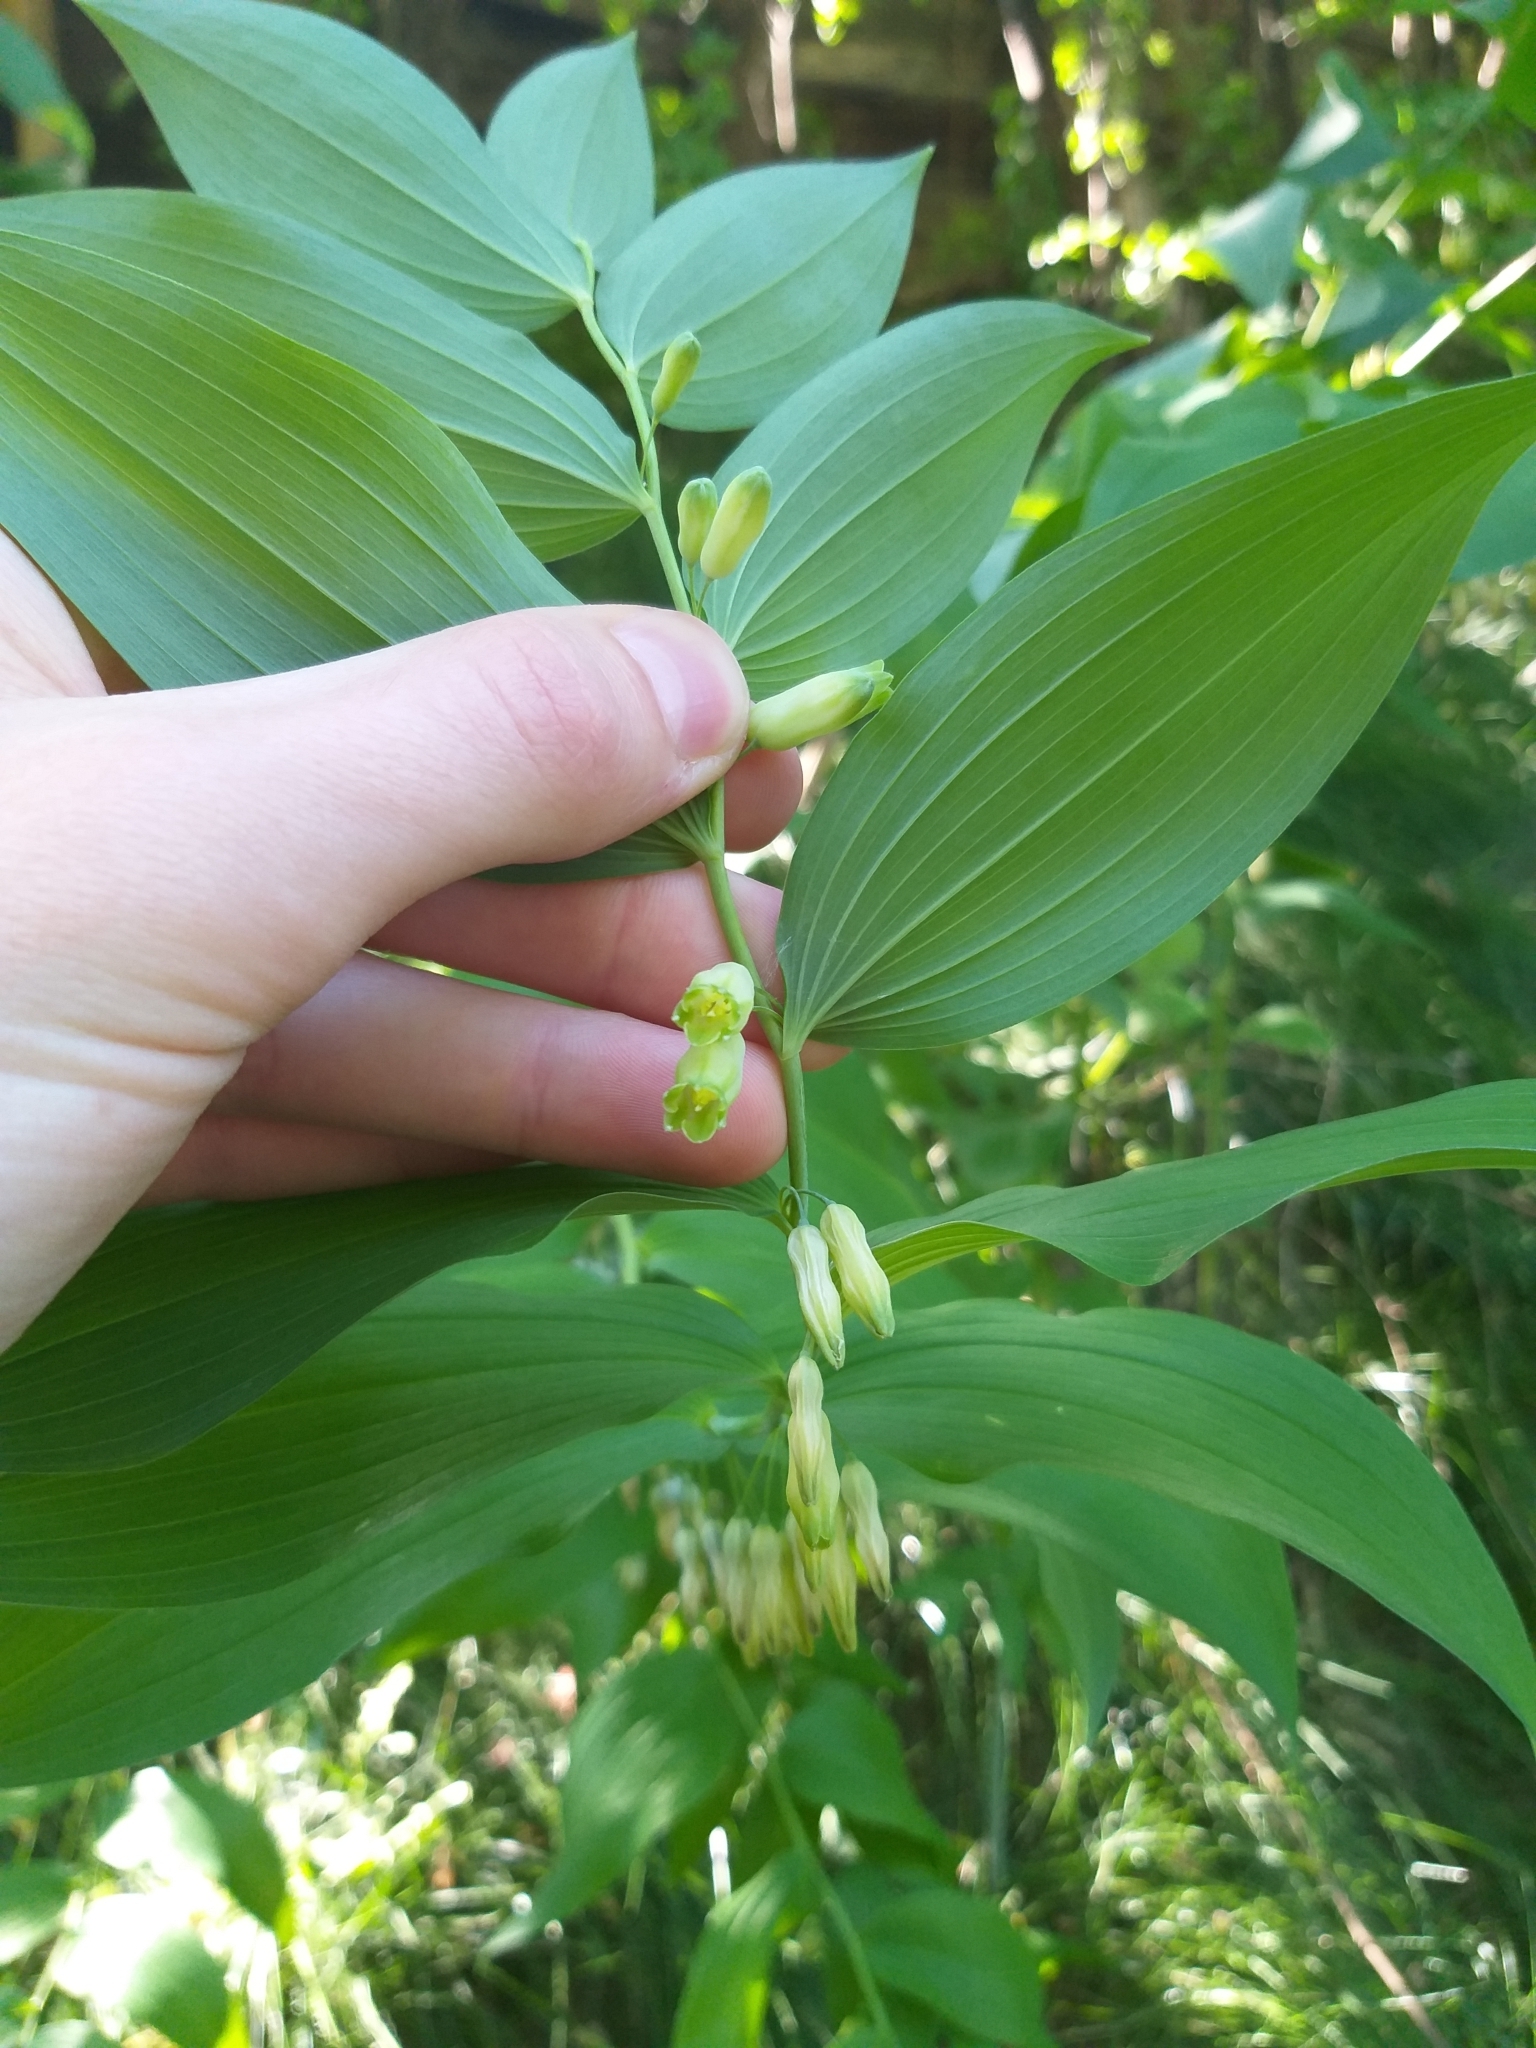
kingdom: Plantae
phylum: Tracheophyta
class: Liliopsida
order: Asparagales
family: Asparagaceae
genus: Polygonatum
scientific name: Polygonatum biflorum
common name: American solomon's-seal
